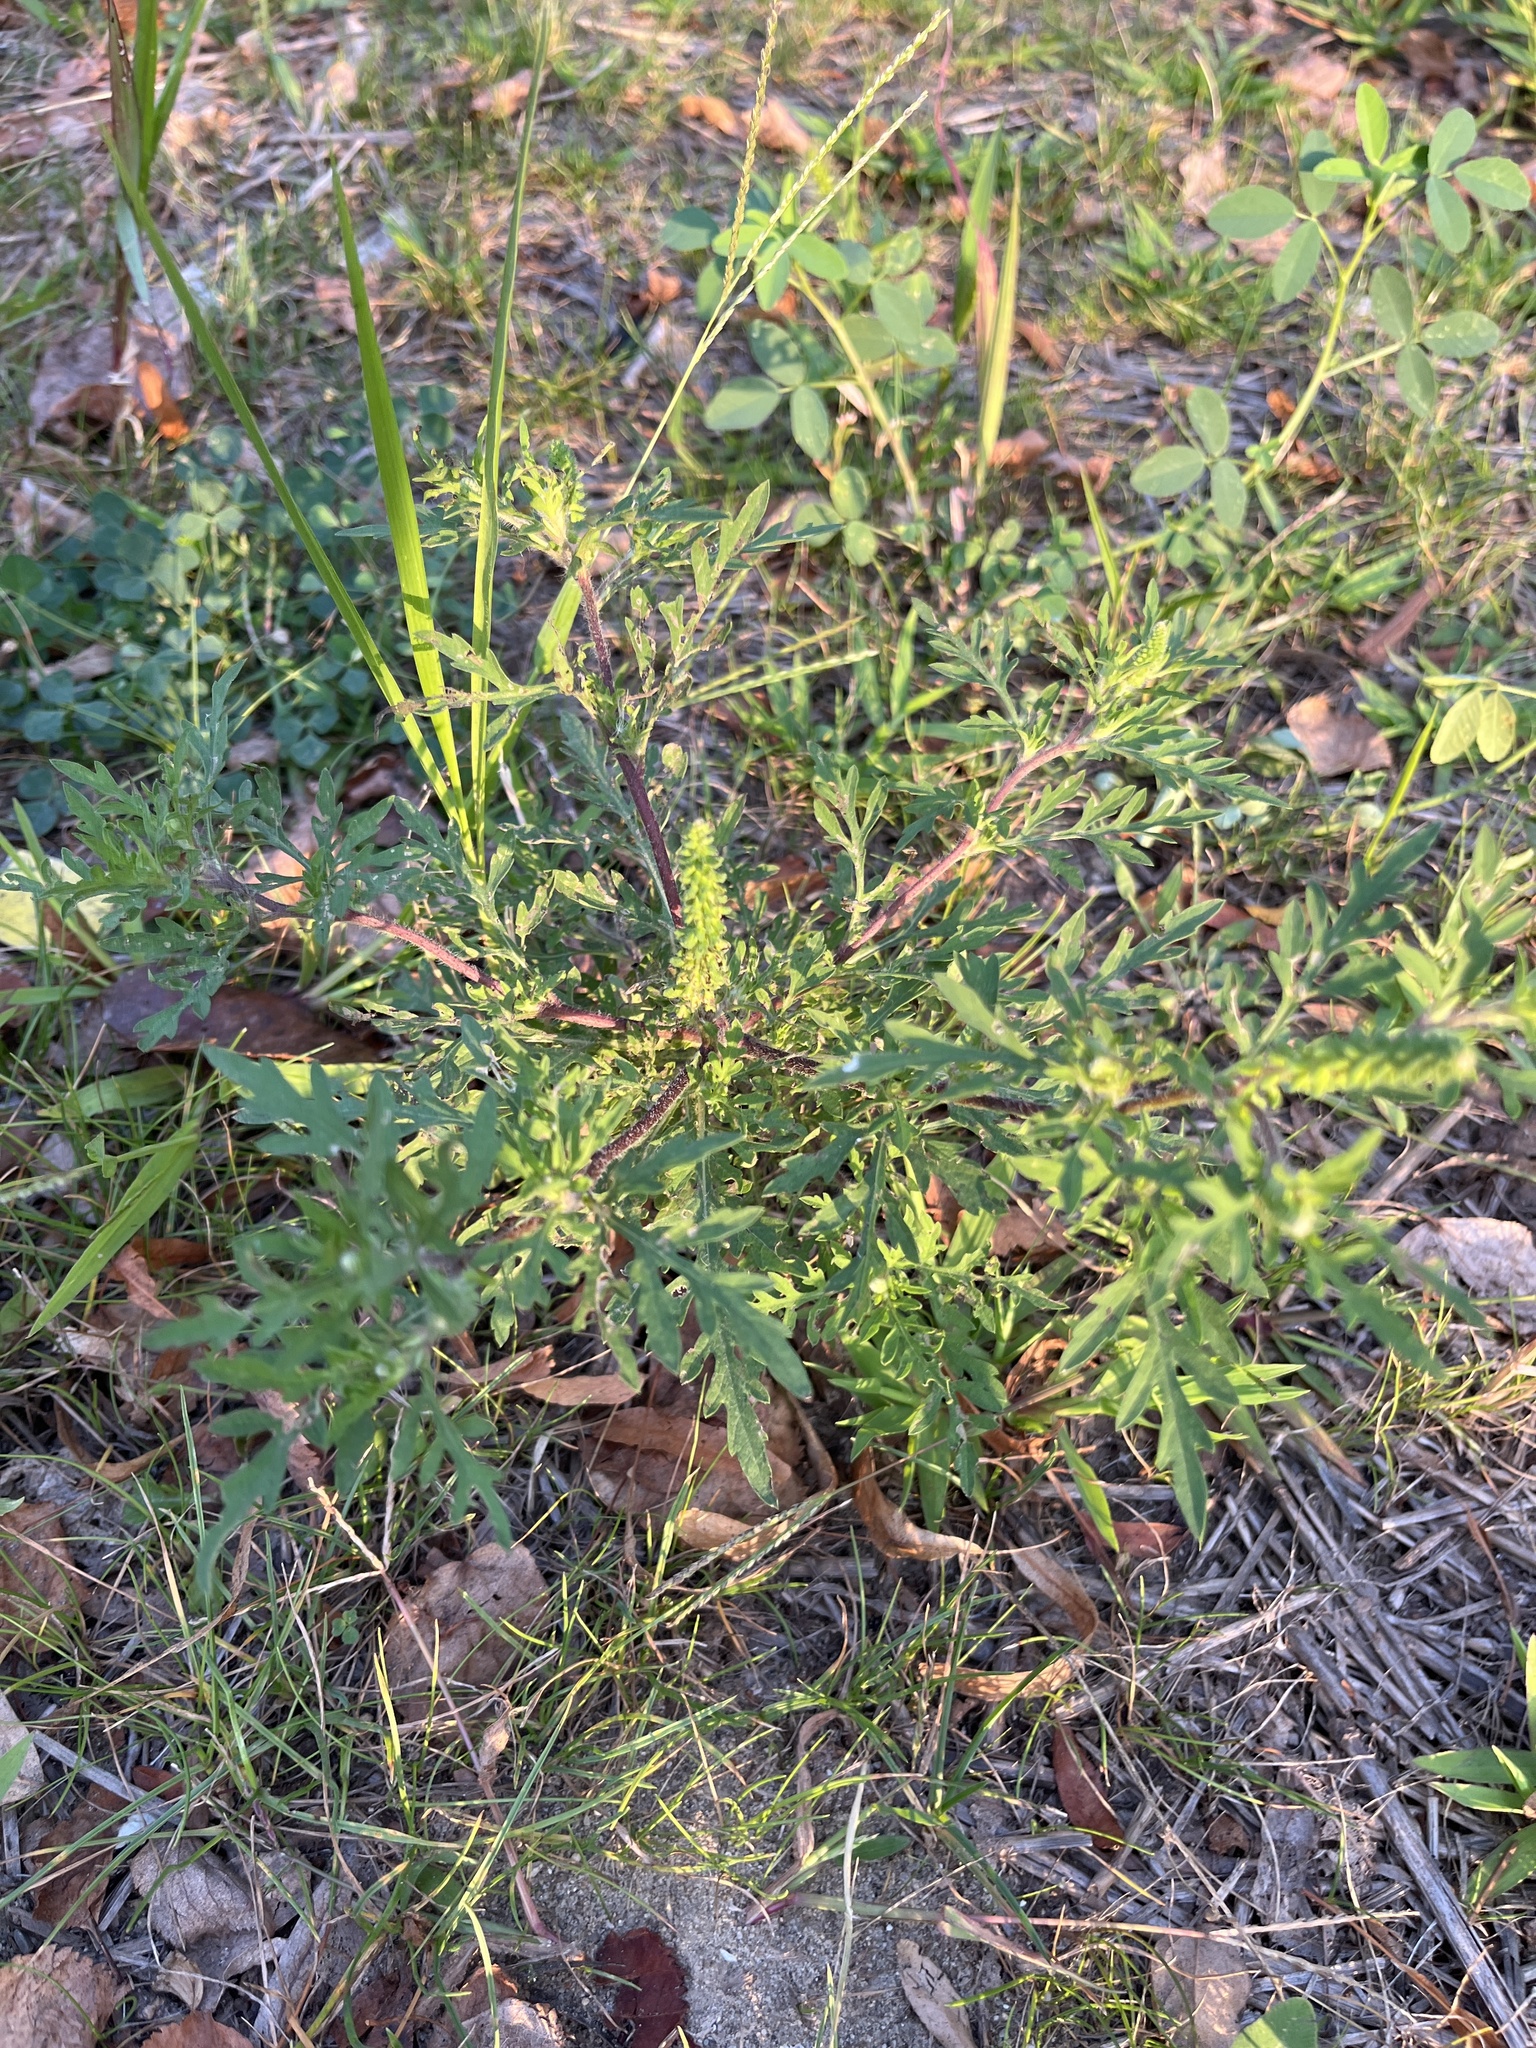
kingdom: Plantae
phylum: Tracheophyta
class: Magnoliopsida
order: Asterales
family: Asteraceae
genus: Ambrosia
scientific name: Ambrosia artemisiifolia
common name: Annual ragweed
